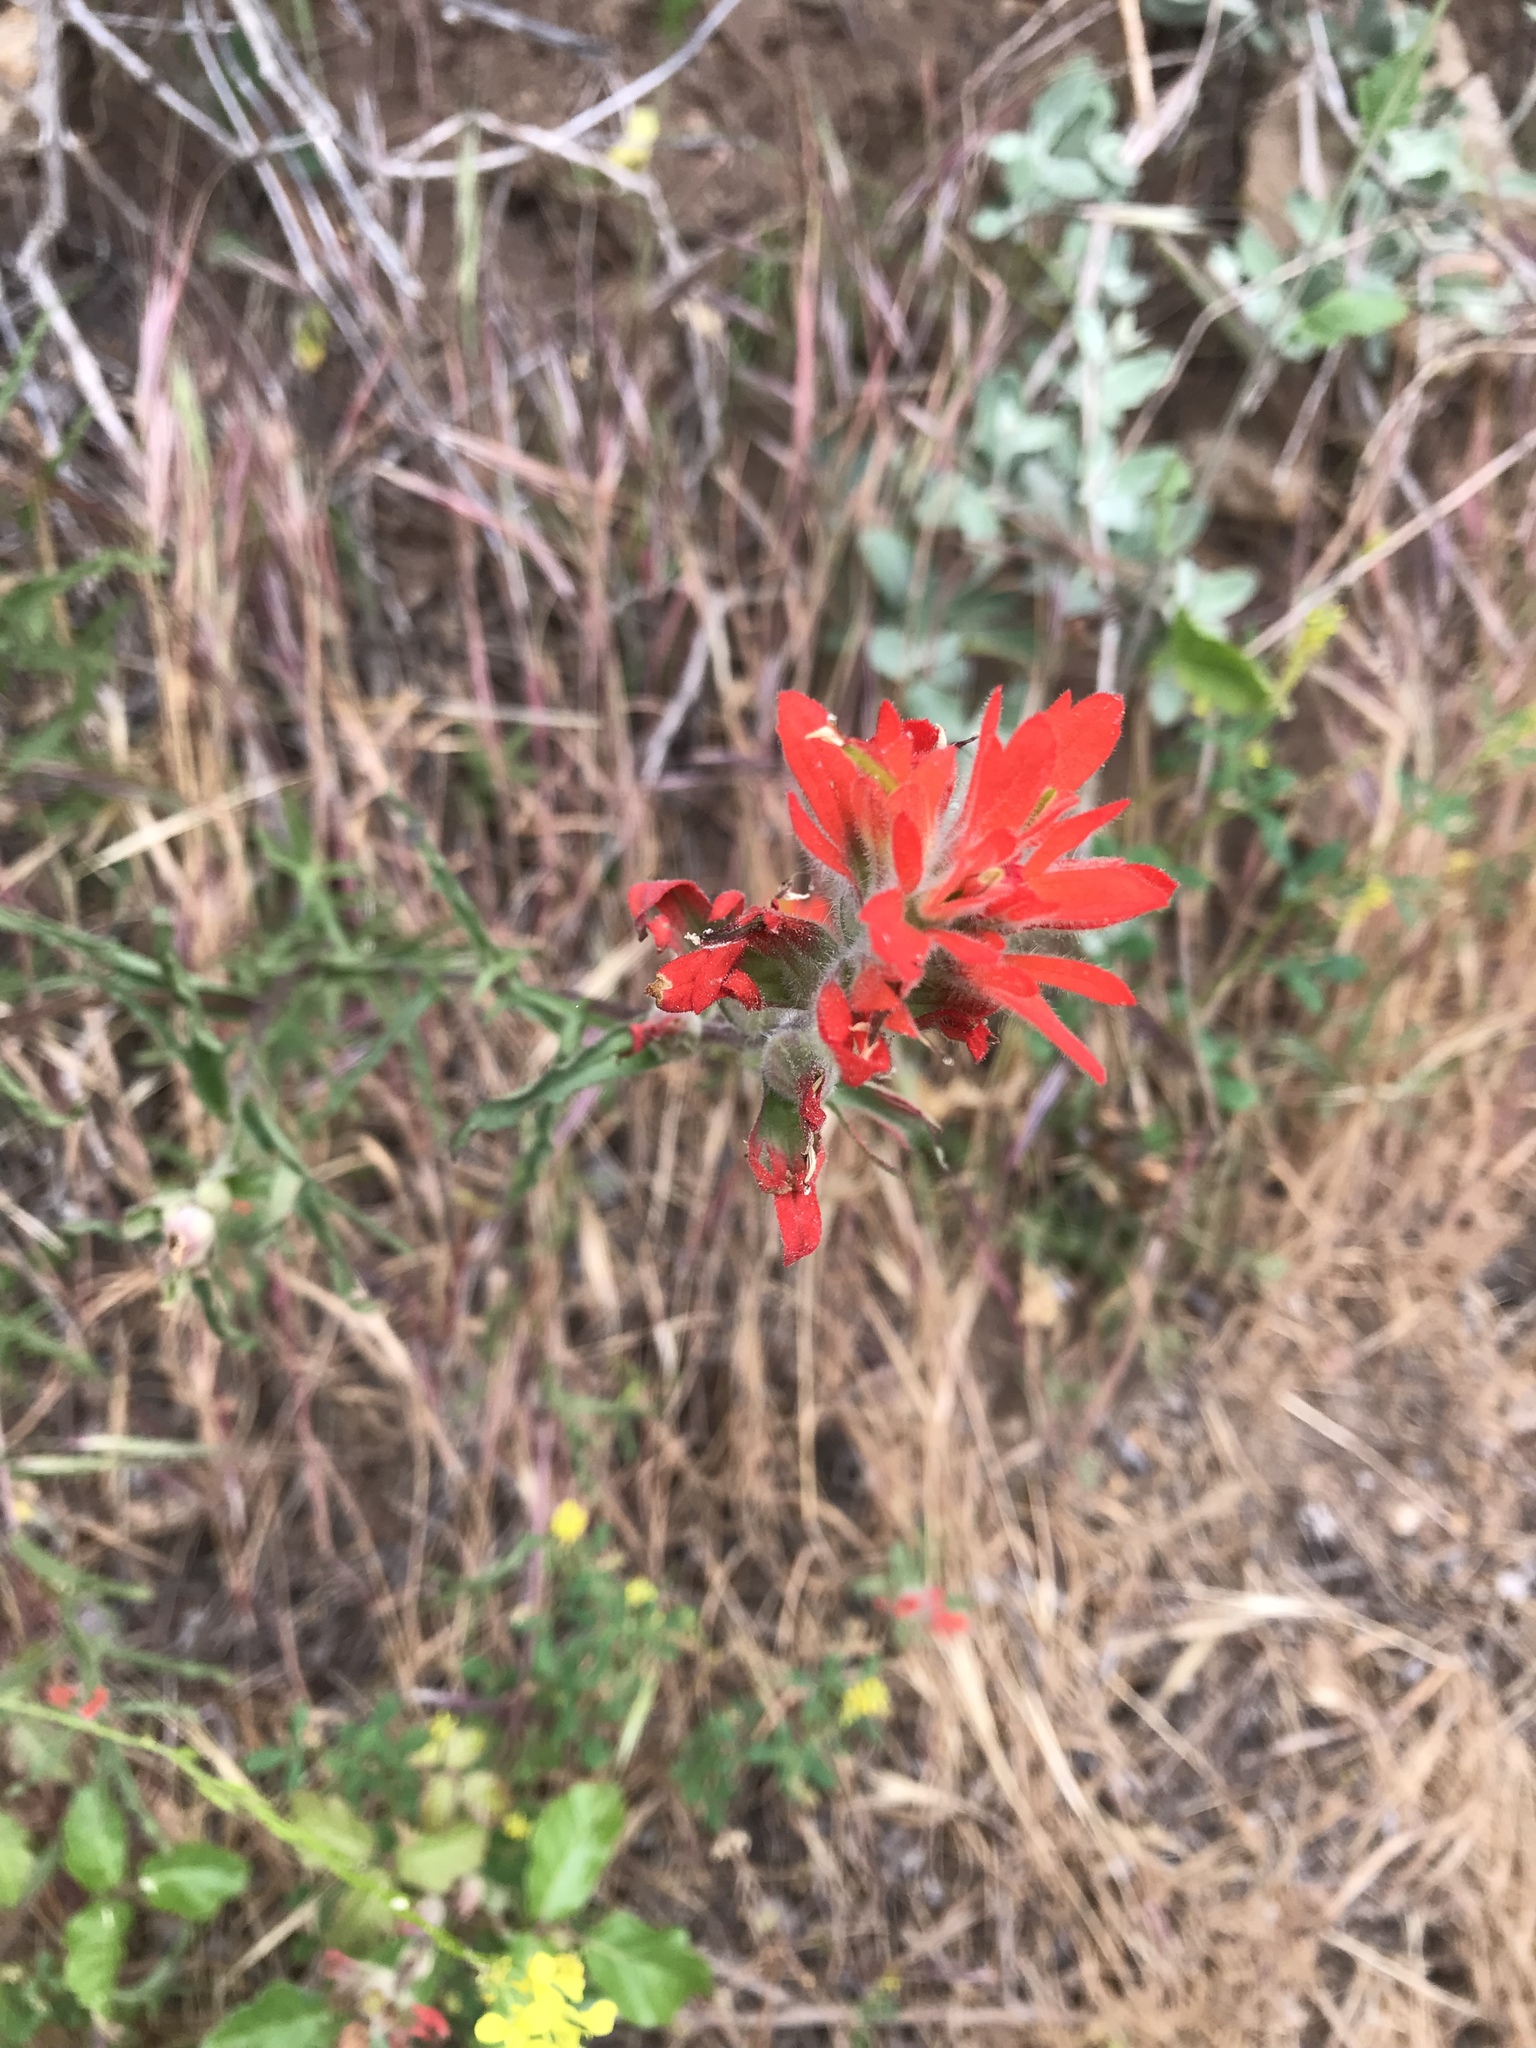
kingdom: Plantae
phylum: Tracheophyta
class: Magnoliopsida
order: Lamiales
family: Orobanchaceae
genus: Castilleja
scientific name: Castilleja affinis
